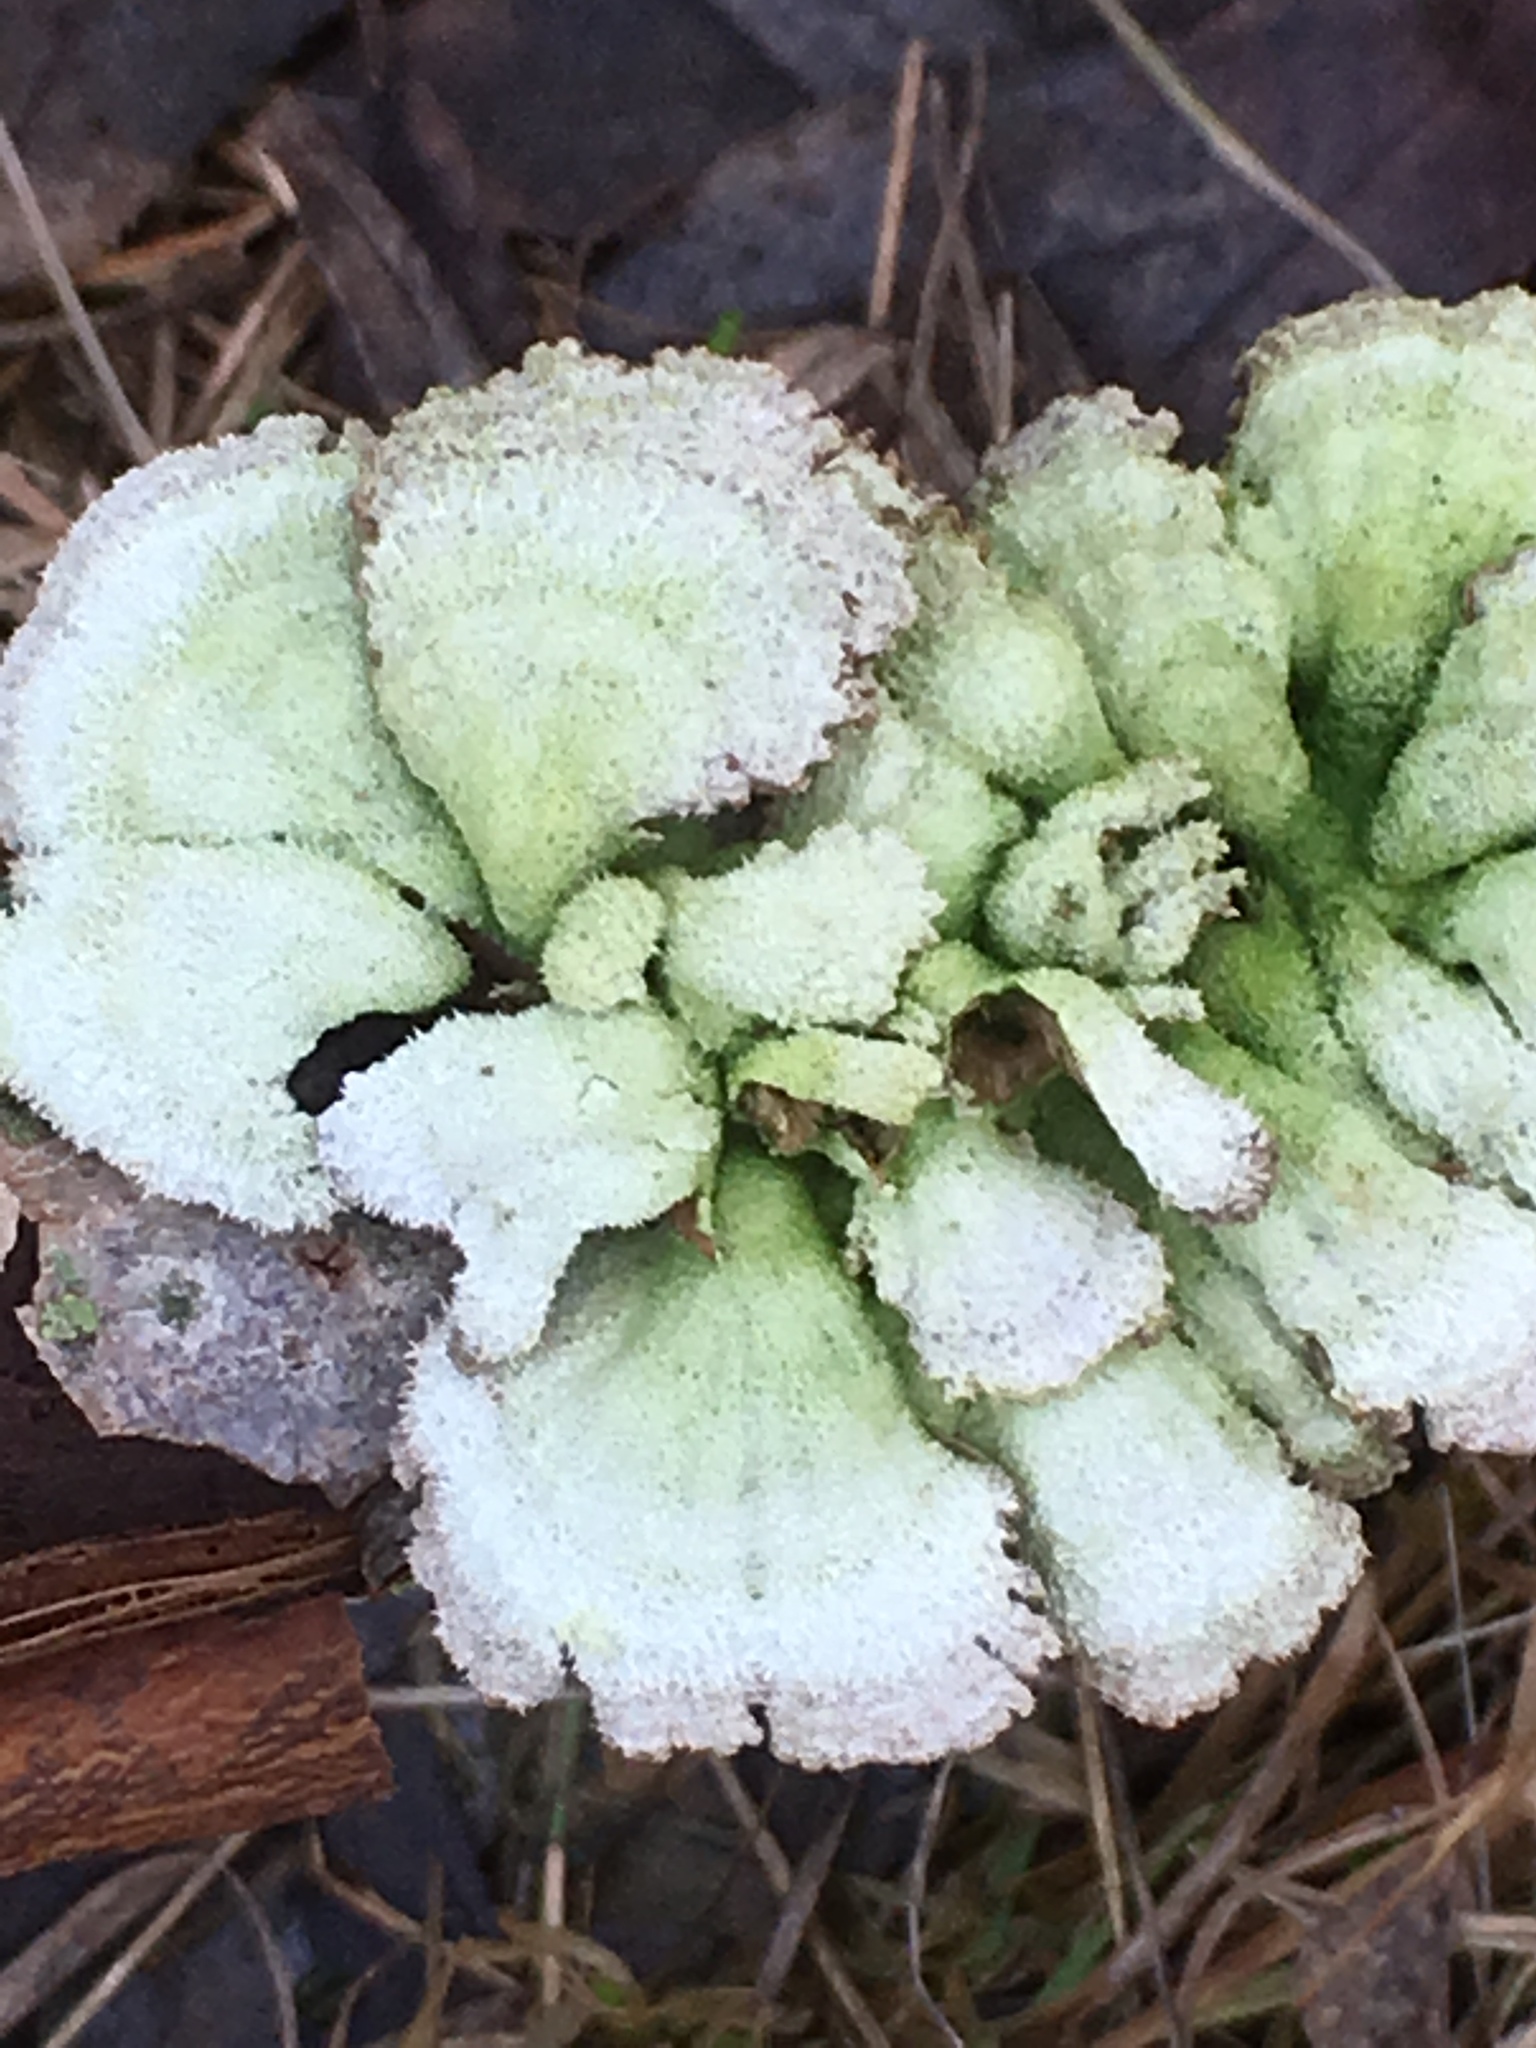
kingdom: Fungi
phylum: Basidiomycota
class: Agaricomycetes
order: Agaricales
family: Schizophyllaceae
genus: Schizophyllum
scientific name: Schizophyllum commune
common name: Common porecrust
